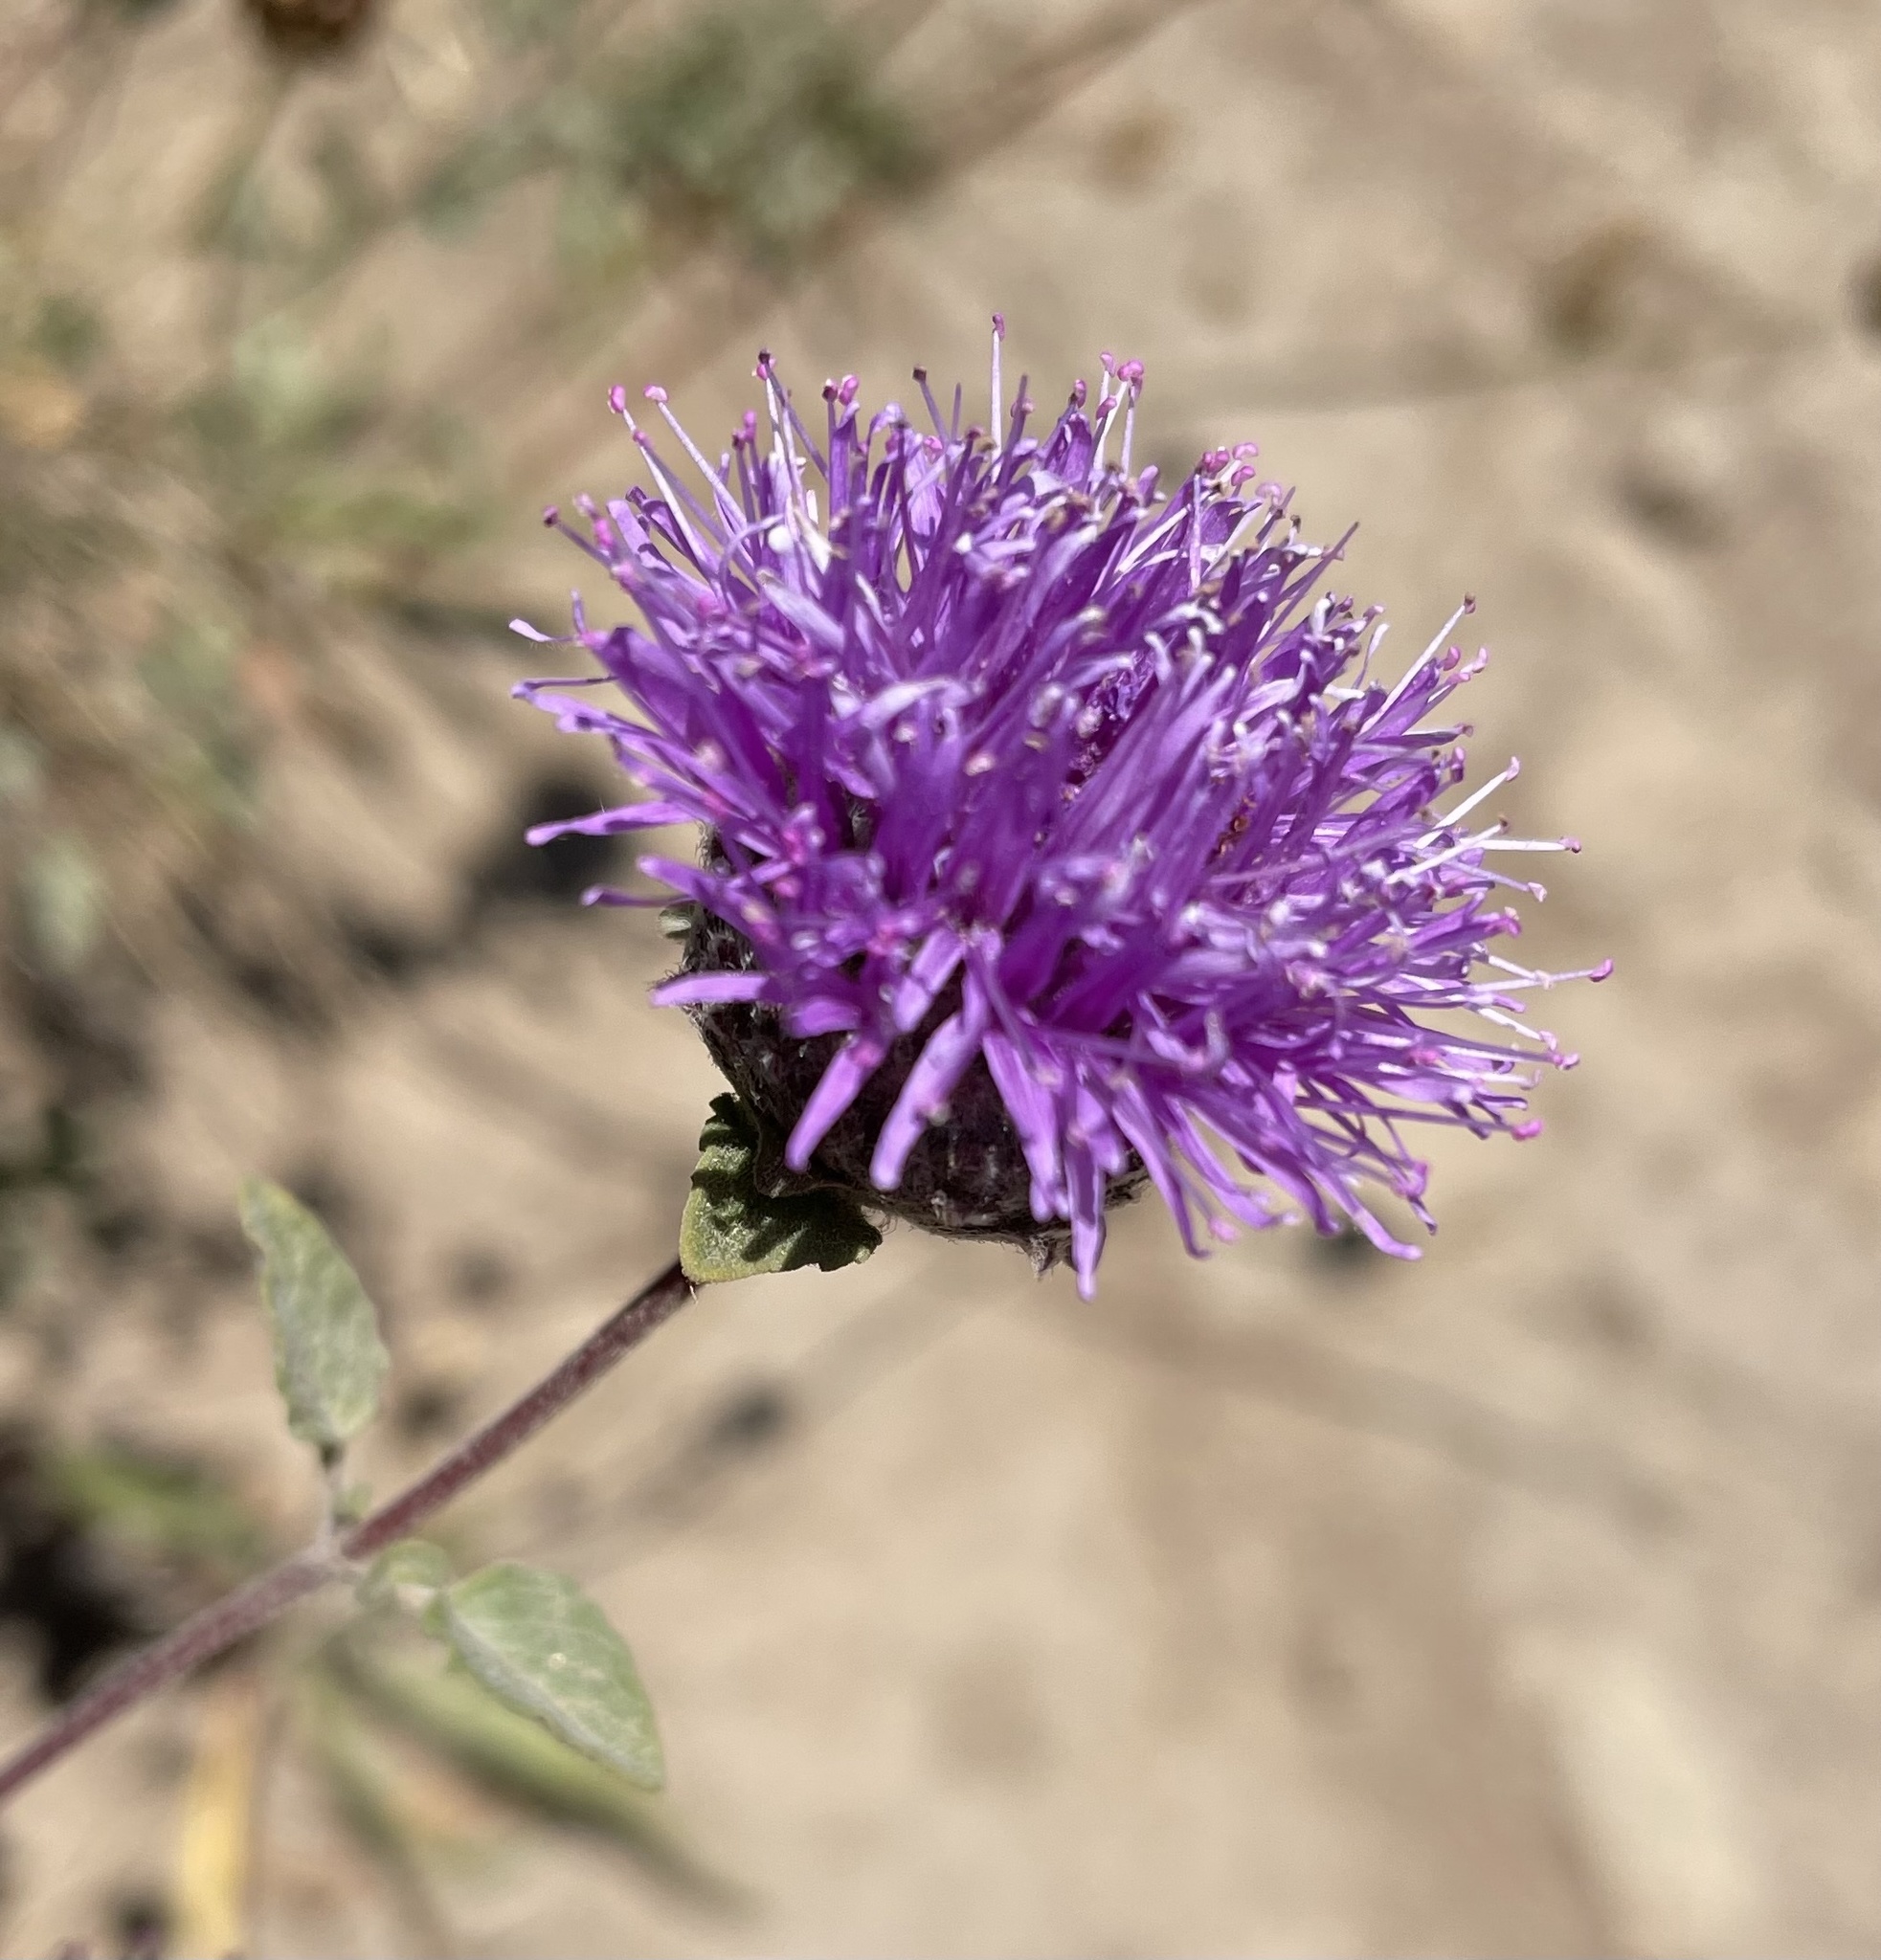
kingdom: Plantae
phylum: Tracheophyta
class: Magnoliopsida
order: Lamiales
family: Lamiaceae
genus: Monardella
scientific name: Monardella odoratissima
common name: Pacific monardella
